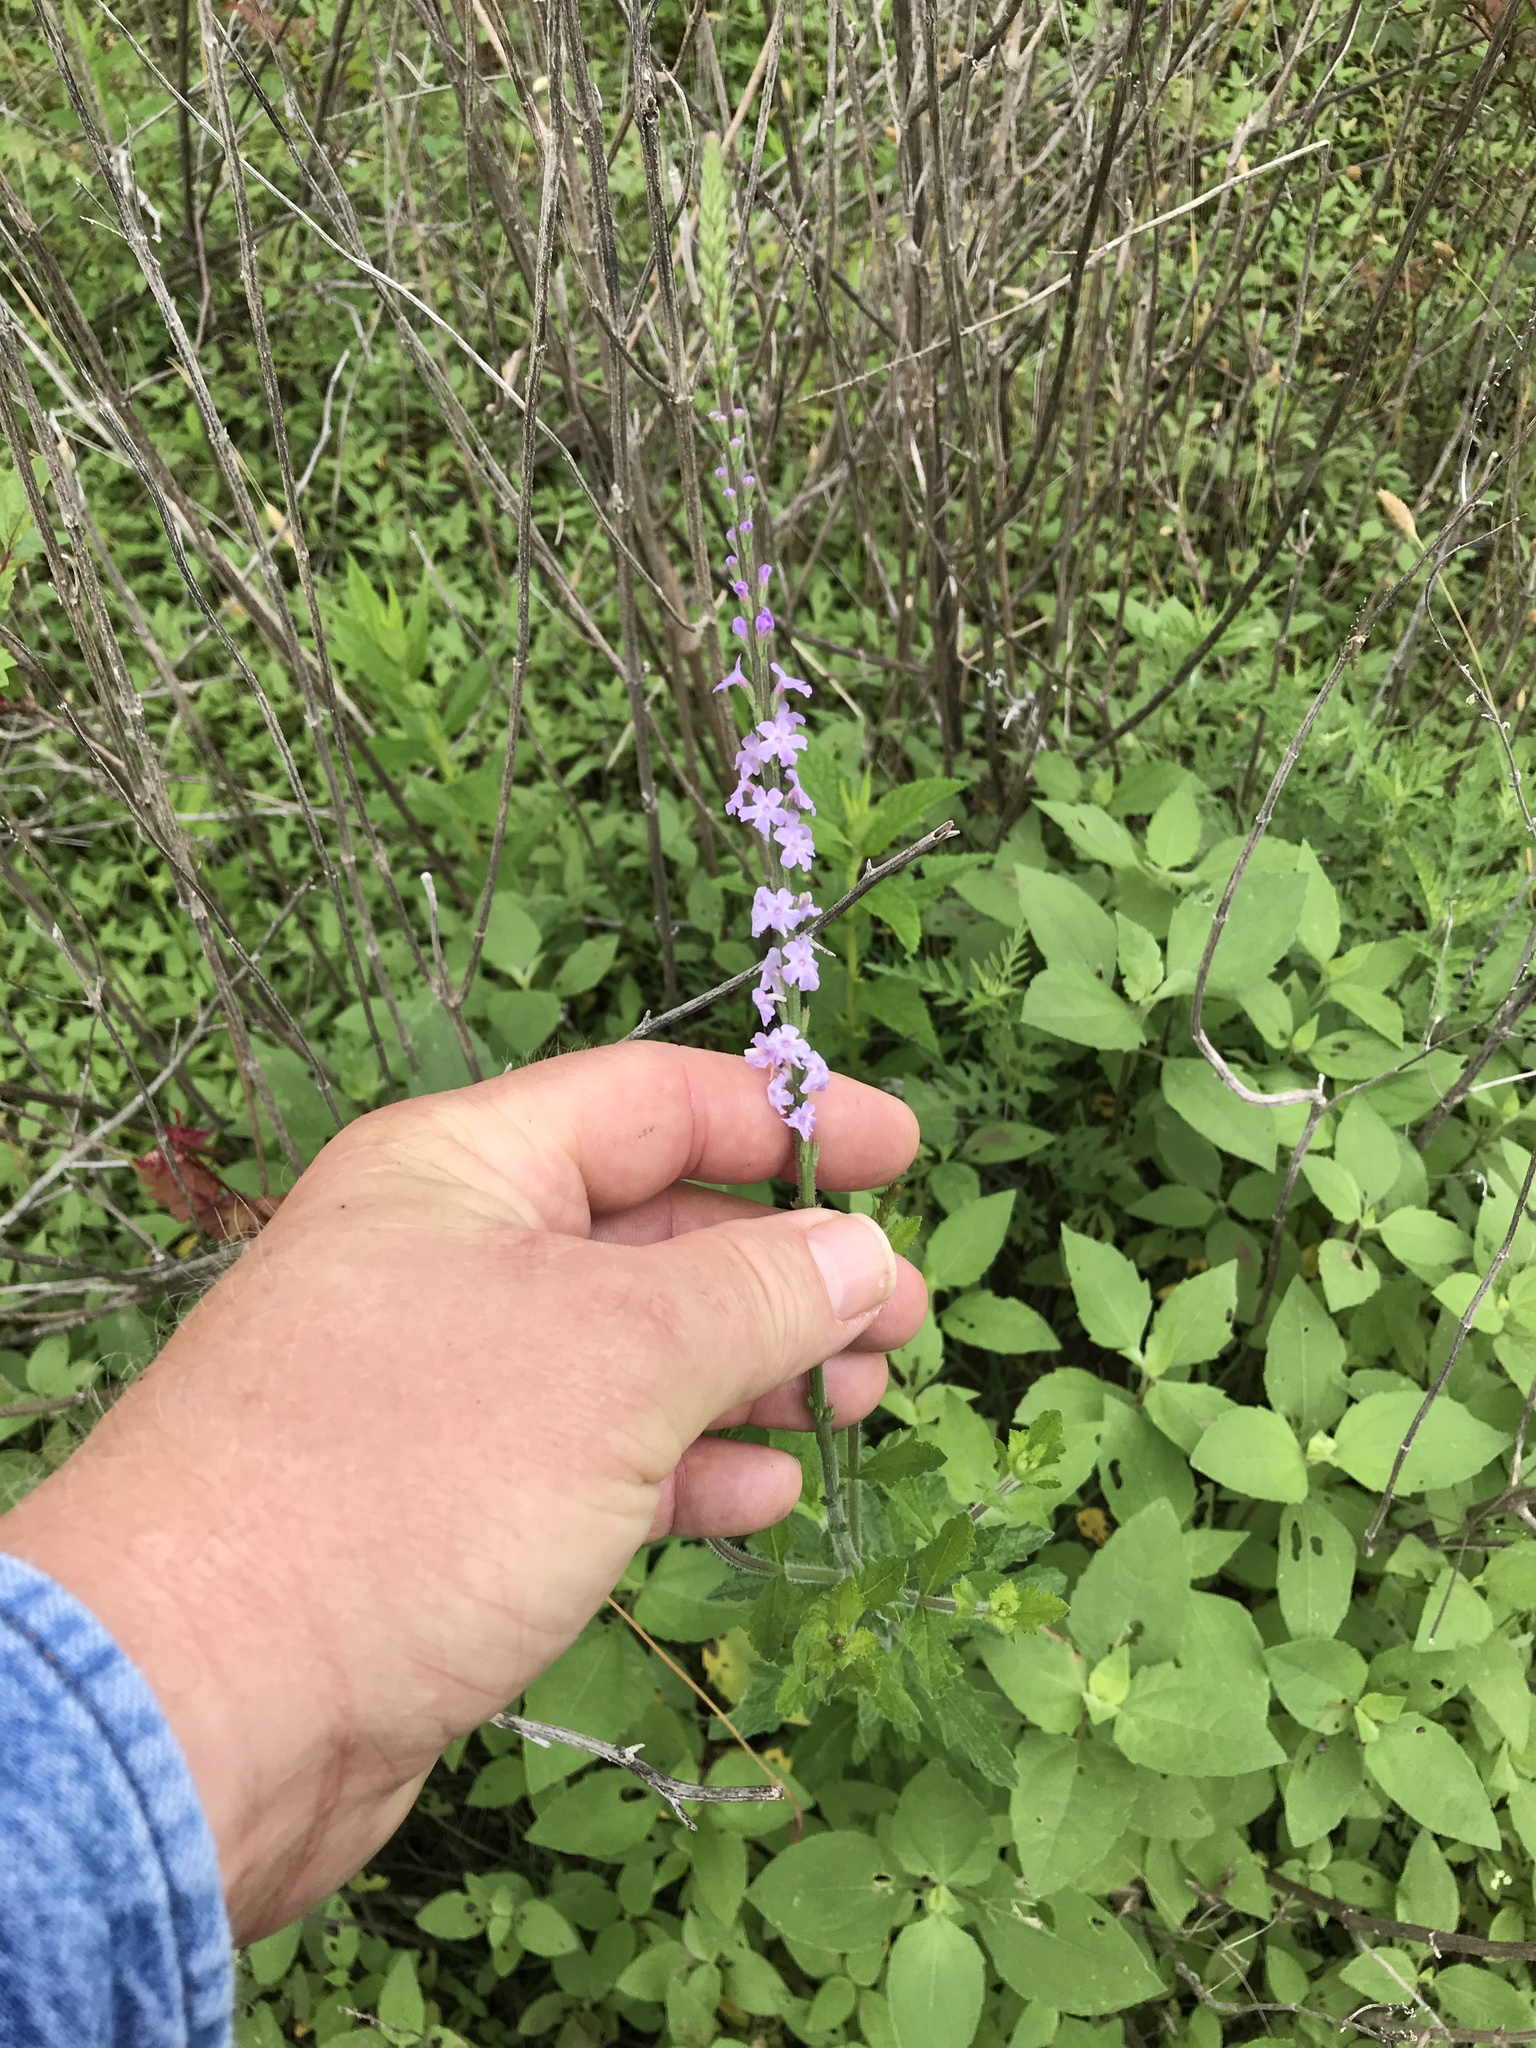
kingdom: Plantae
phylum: Tracheophyta
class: Magnoliopsida
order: Lamiales
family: Verbenaceae
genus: Verbena
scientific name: Verbena xutha
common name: Gulf vervain
